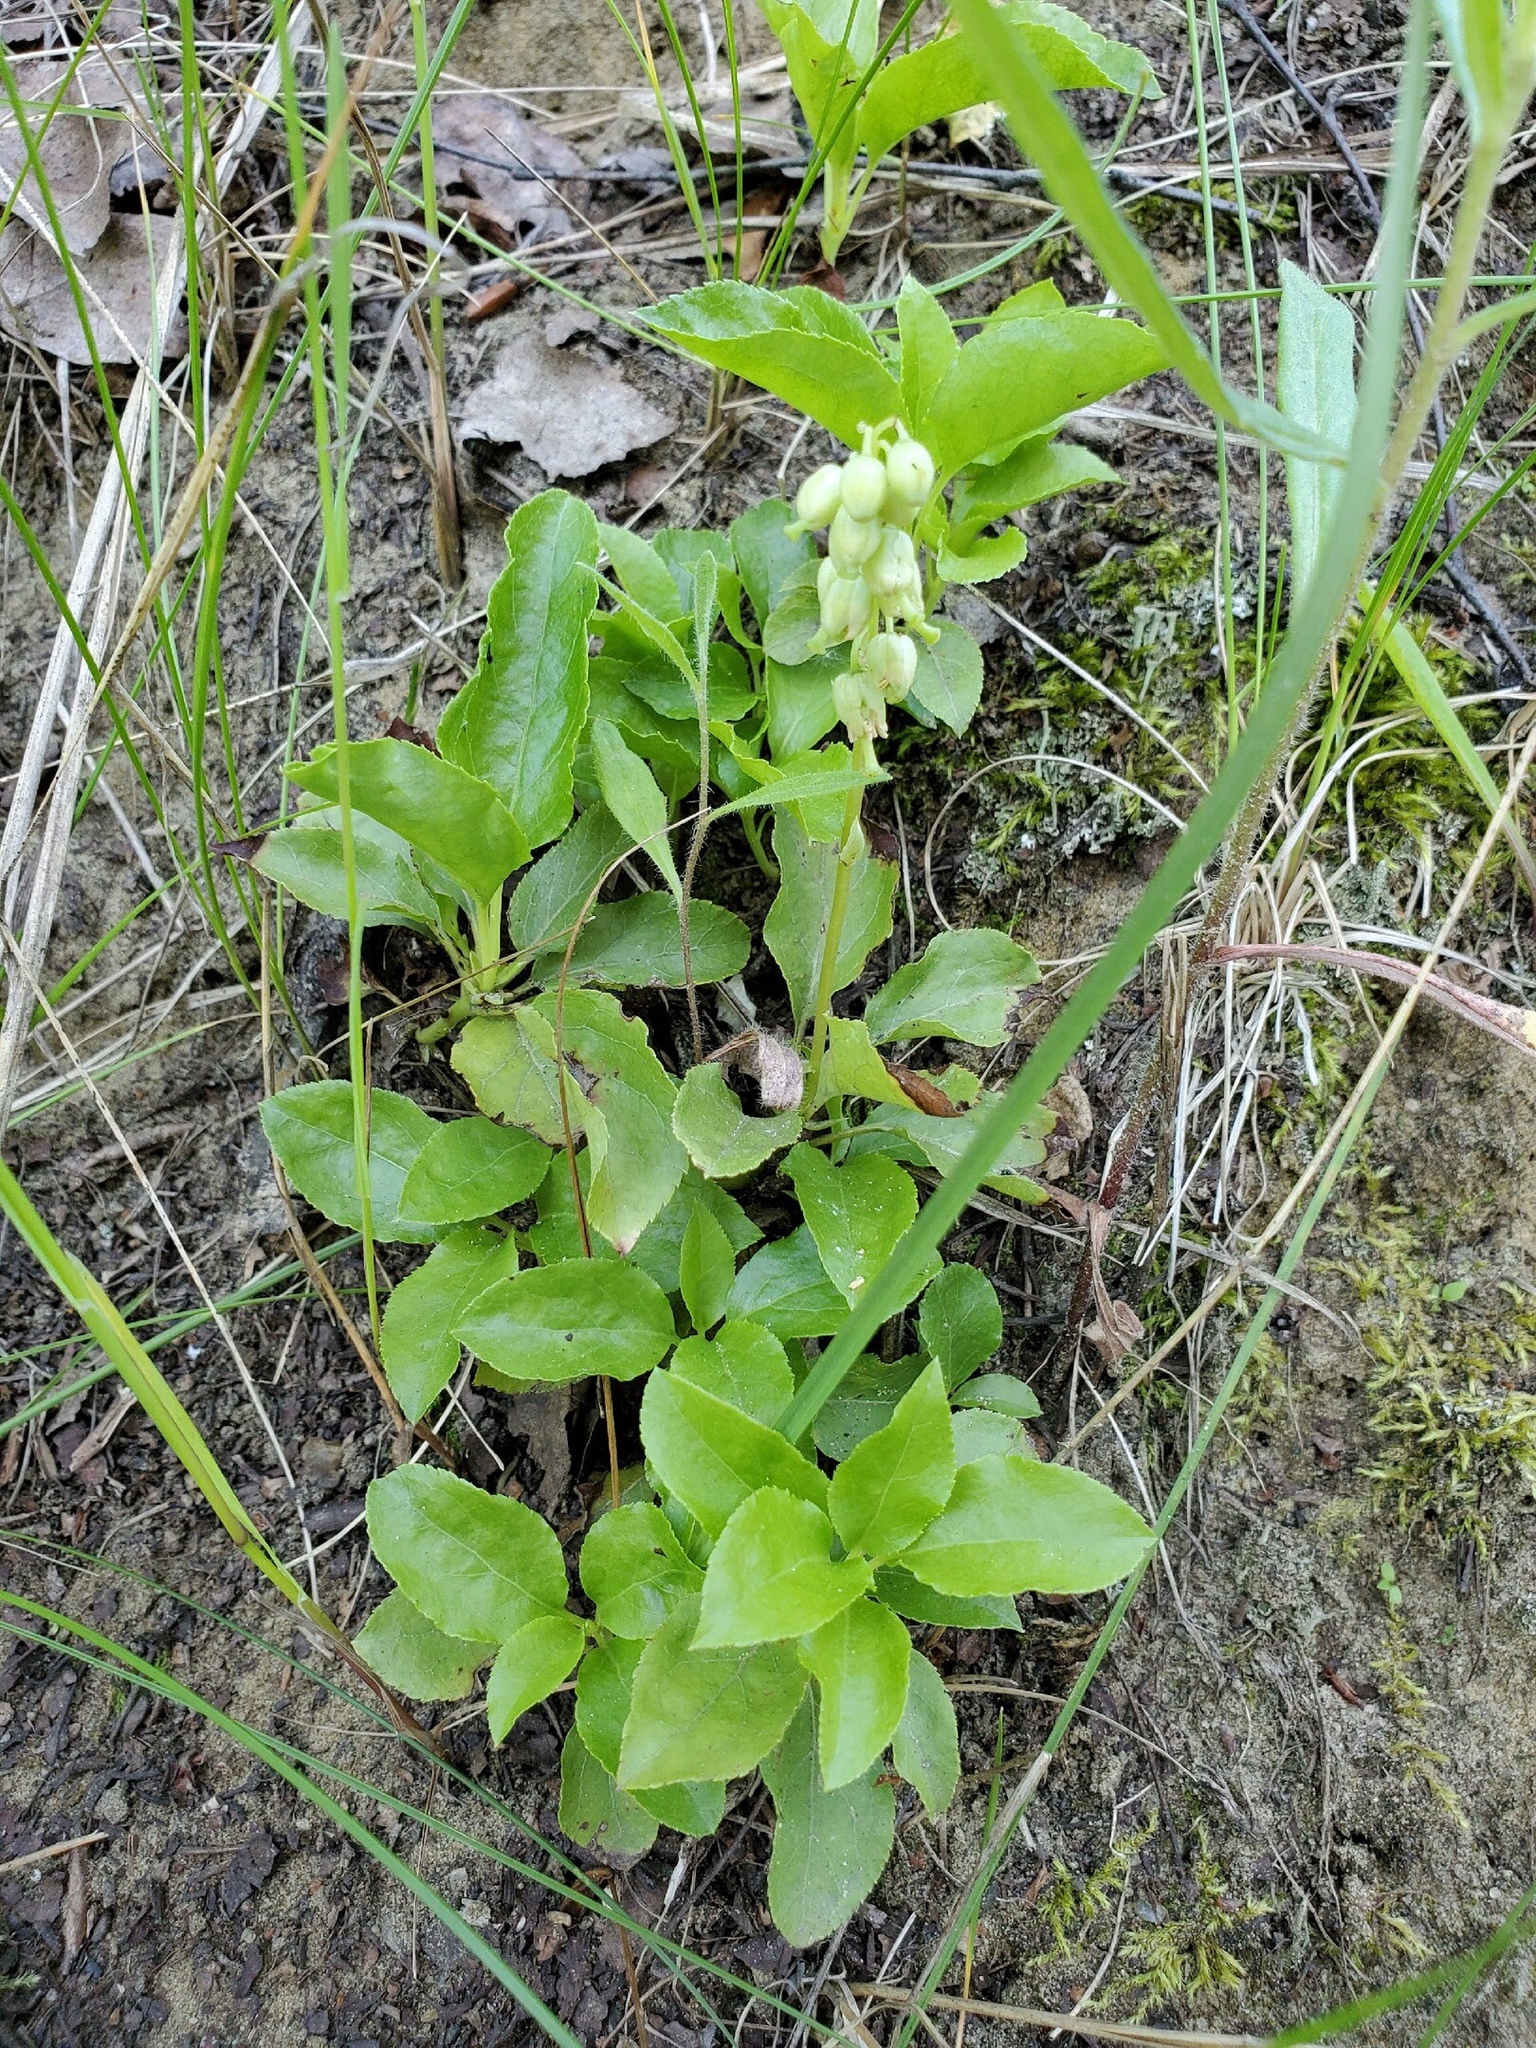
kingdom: Plantae
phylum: Tracheophyta
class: Magnoliopsida
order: Ericales
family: Ericaceae
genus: Orthilia
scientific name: Orthilia secunda
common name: One-sided orthilia
